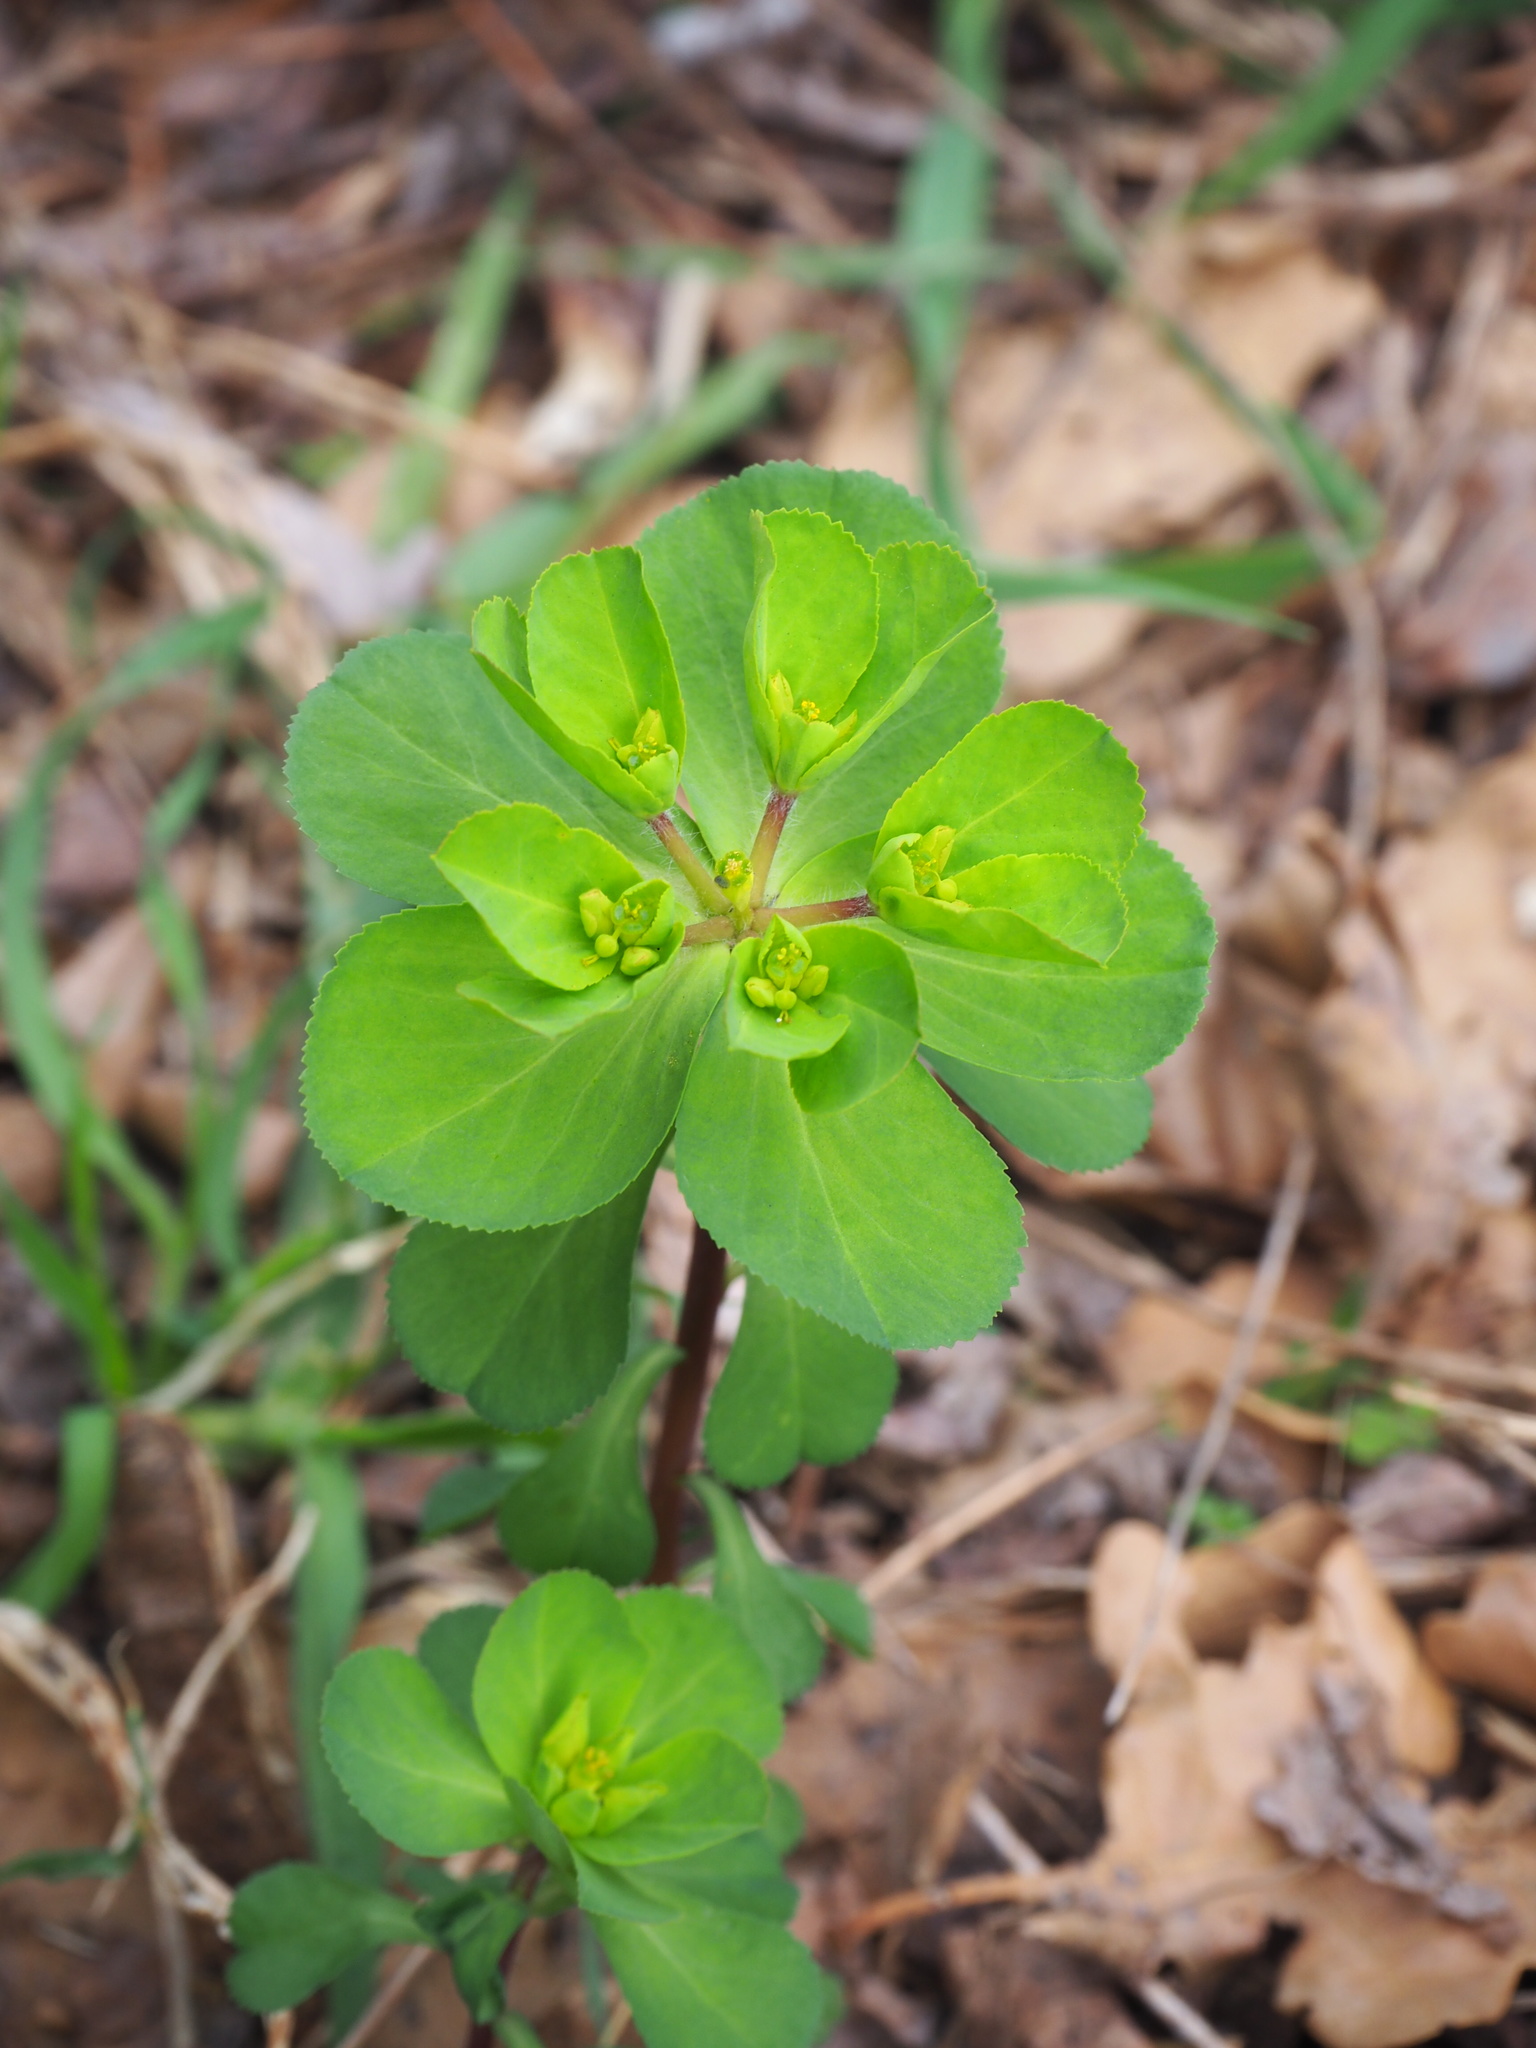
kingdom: Plantae
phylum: Tracheophyta
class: Magnoliopsida
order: Malpighiales
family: Euphorbiaceae
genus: Euphorbia
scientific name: Euphorbia helioscopia
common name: Sun spurge
